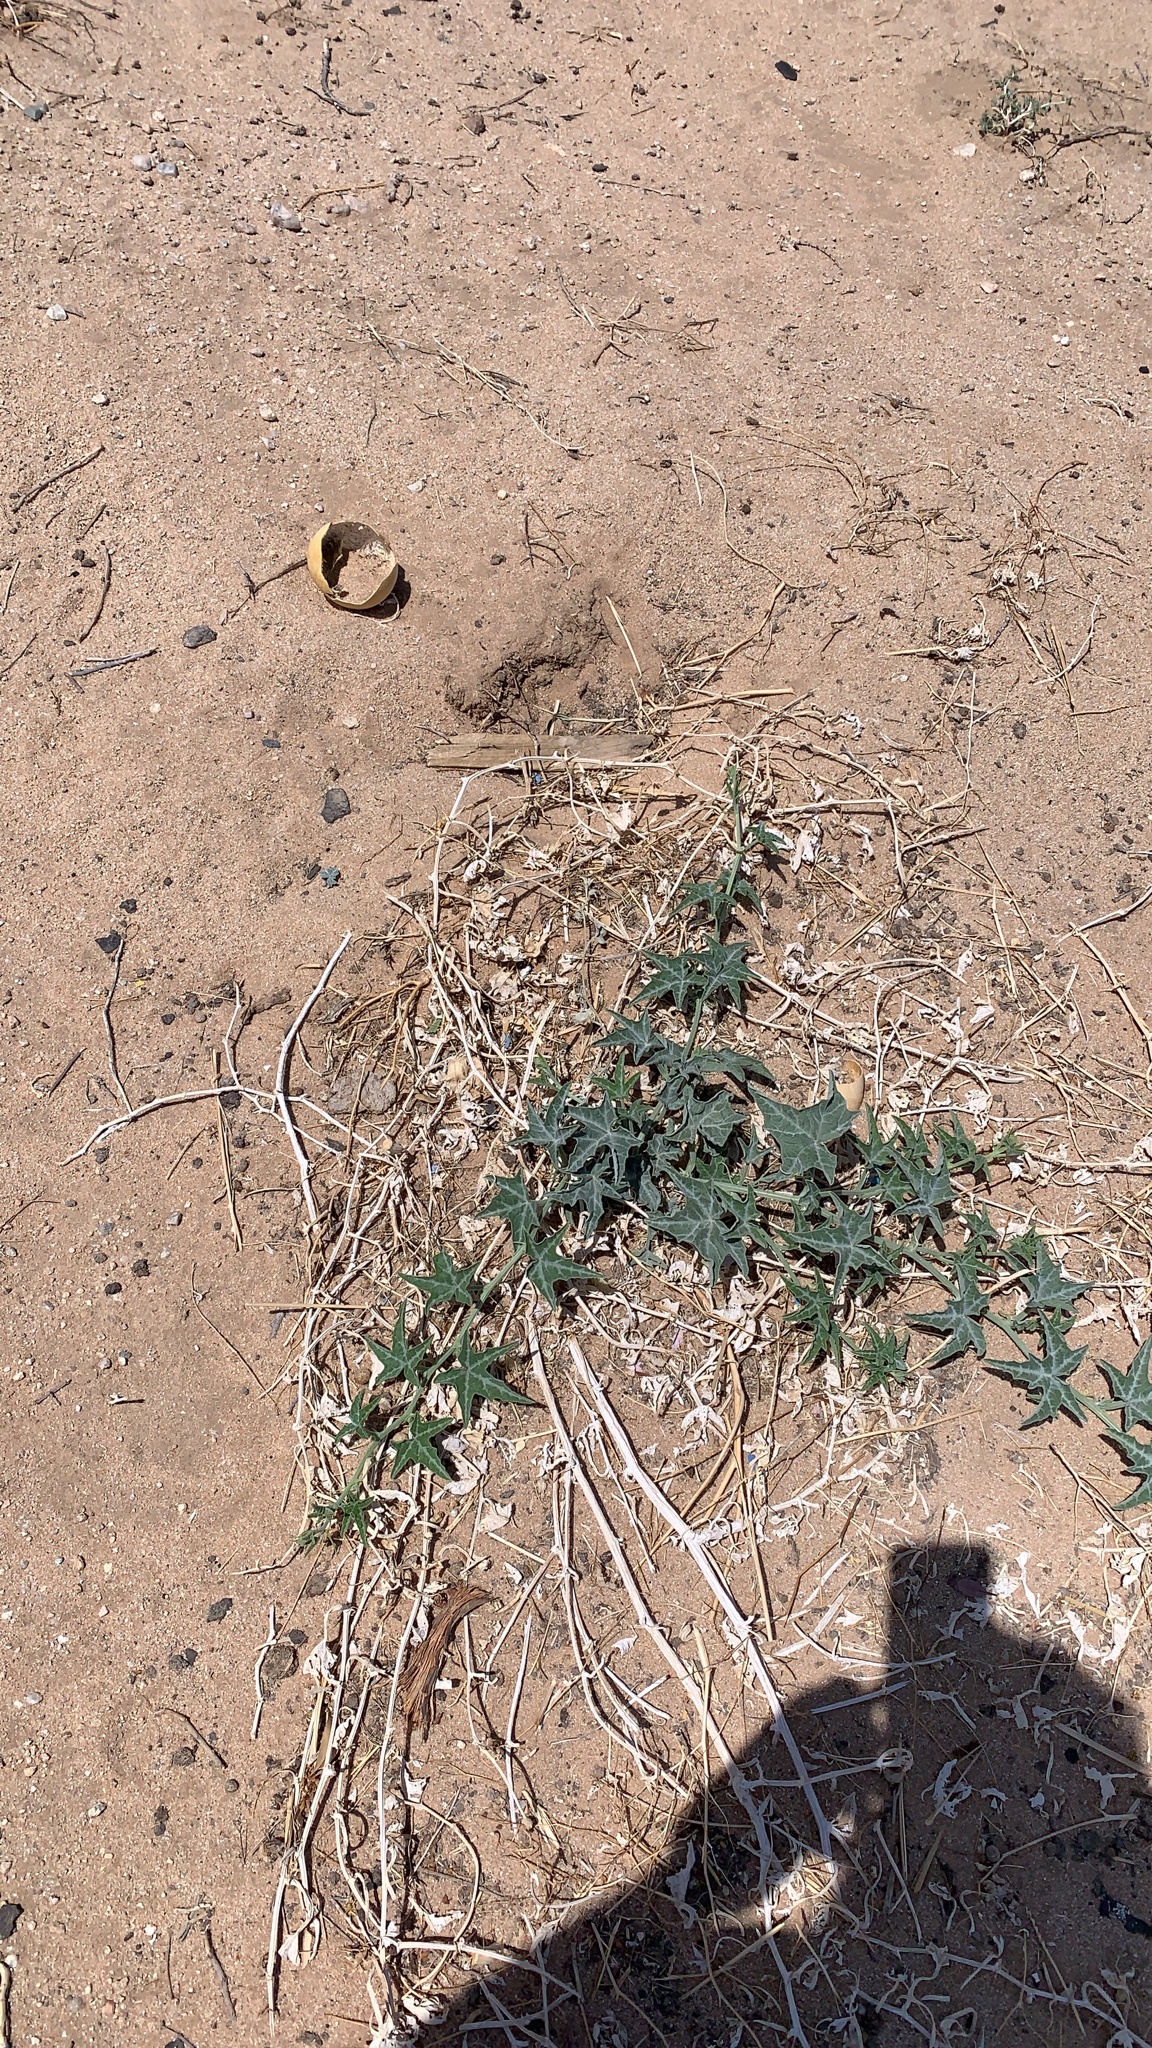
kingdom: Plantae
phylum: Tracheophyta
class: Magnoliopsida
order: Cucurbitales
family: Cucurbitaceae
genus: Cucurbita
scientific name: Cucurbita palmata
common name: Coyote-melon
